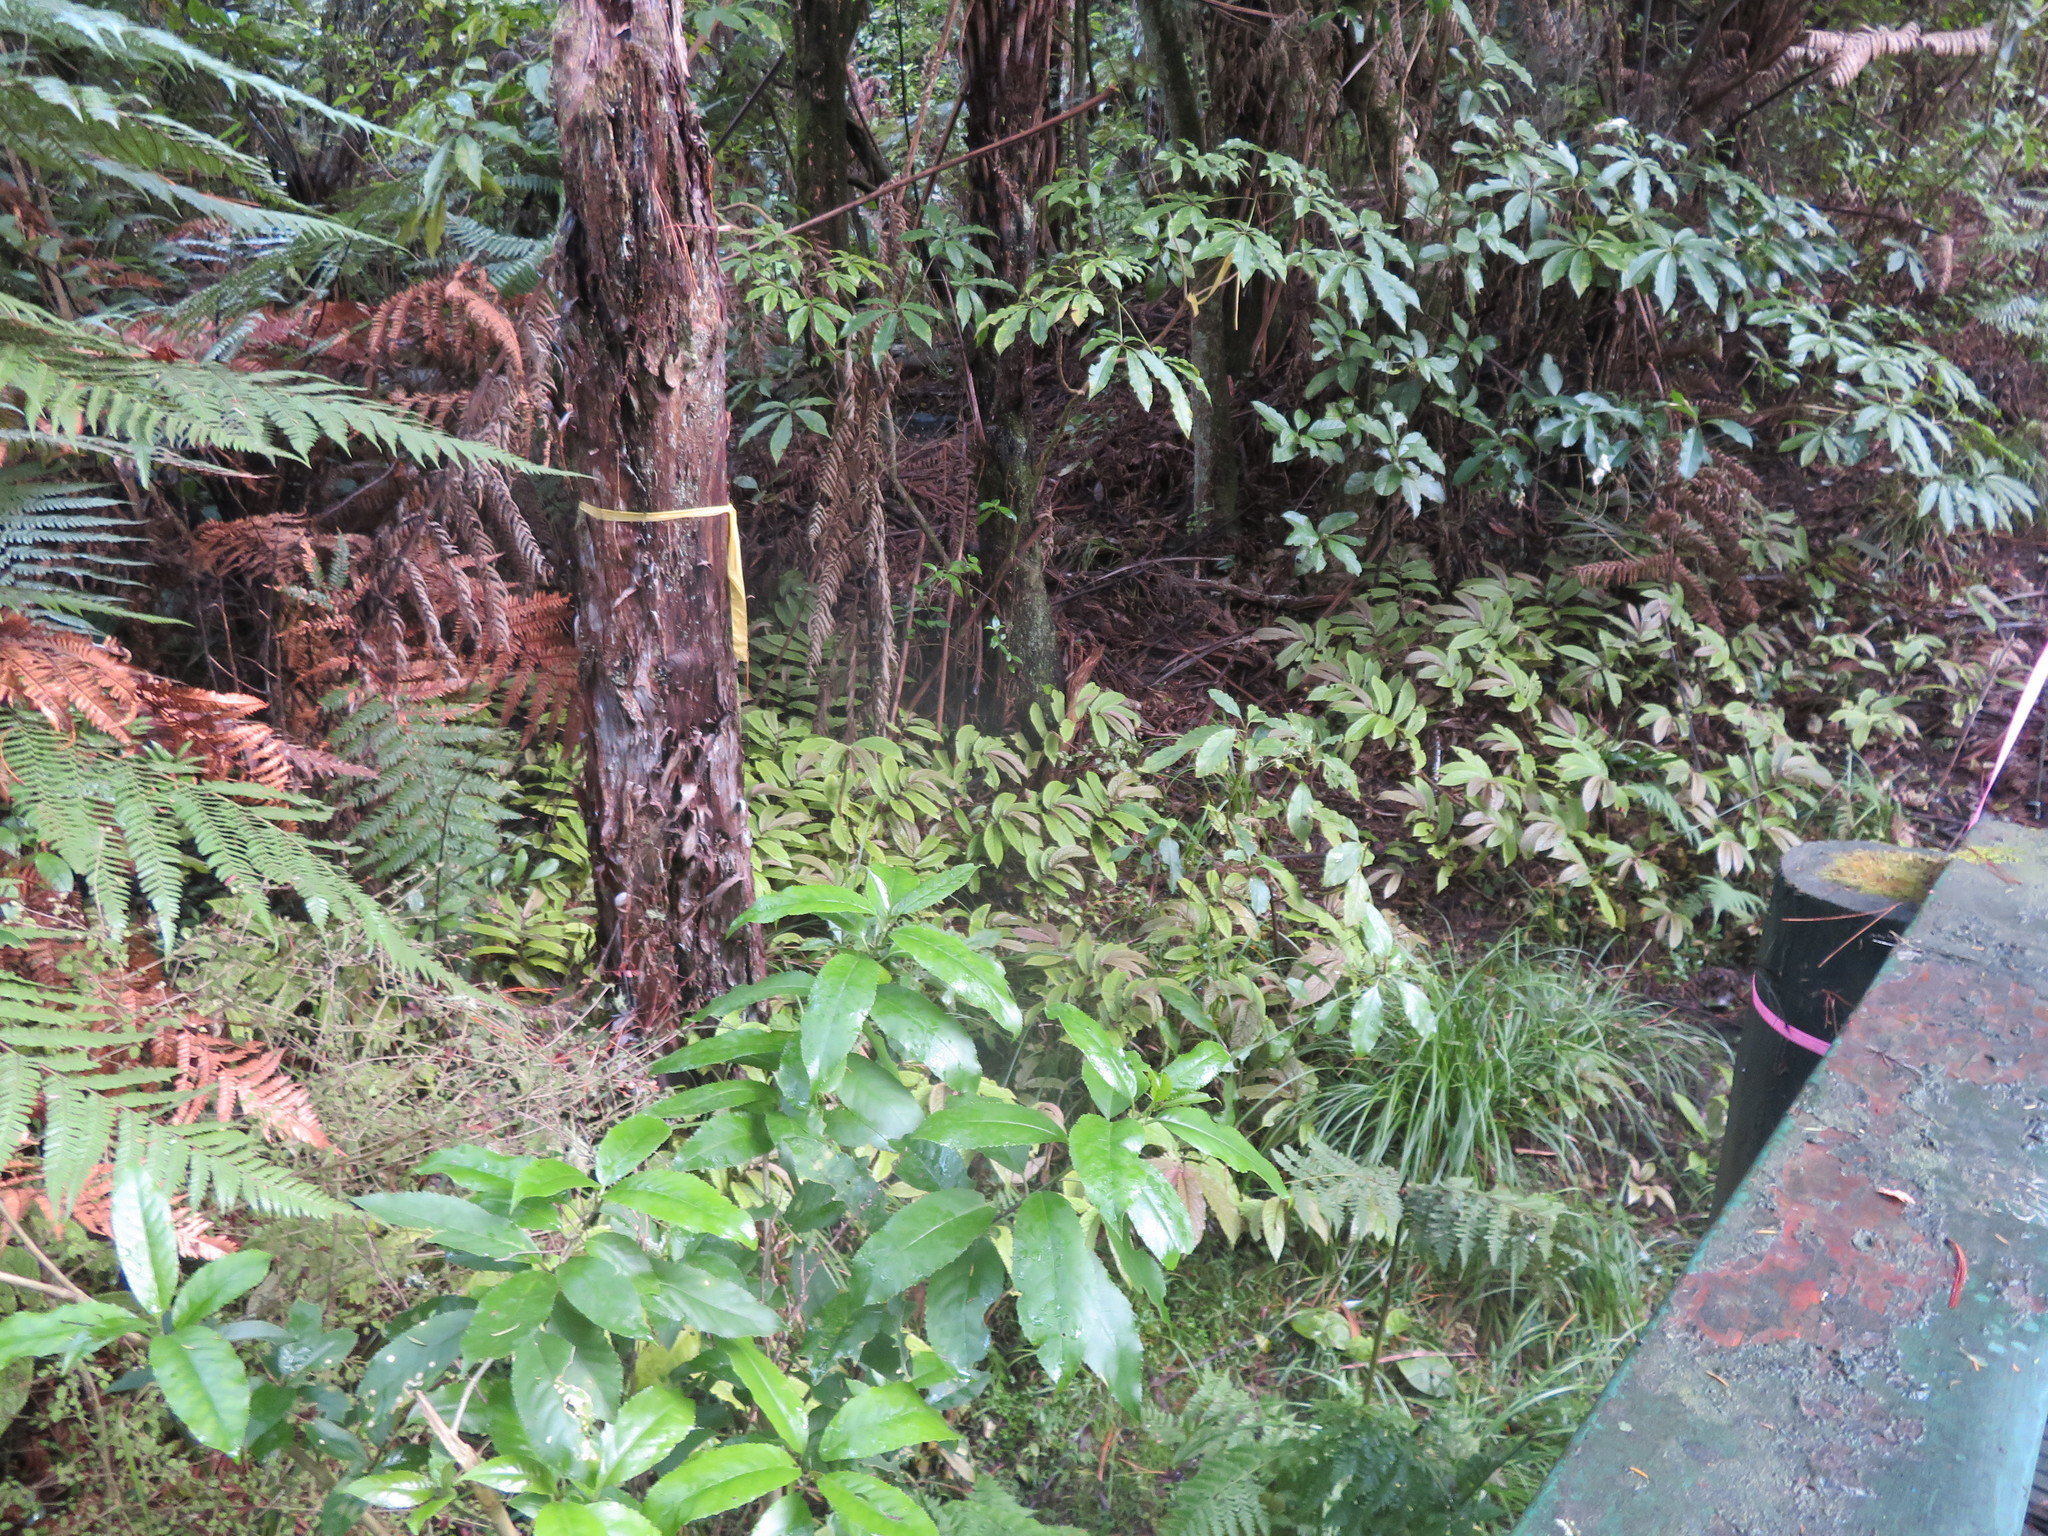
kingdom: Plantae
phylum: Tracheophyta
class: Magnoliopsida
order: Malpighiales
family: Violaceae
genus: Melicytus
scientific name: Melicytus ramiflorus
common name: Mahoe
